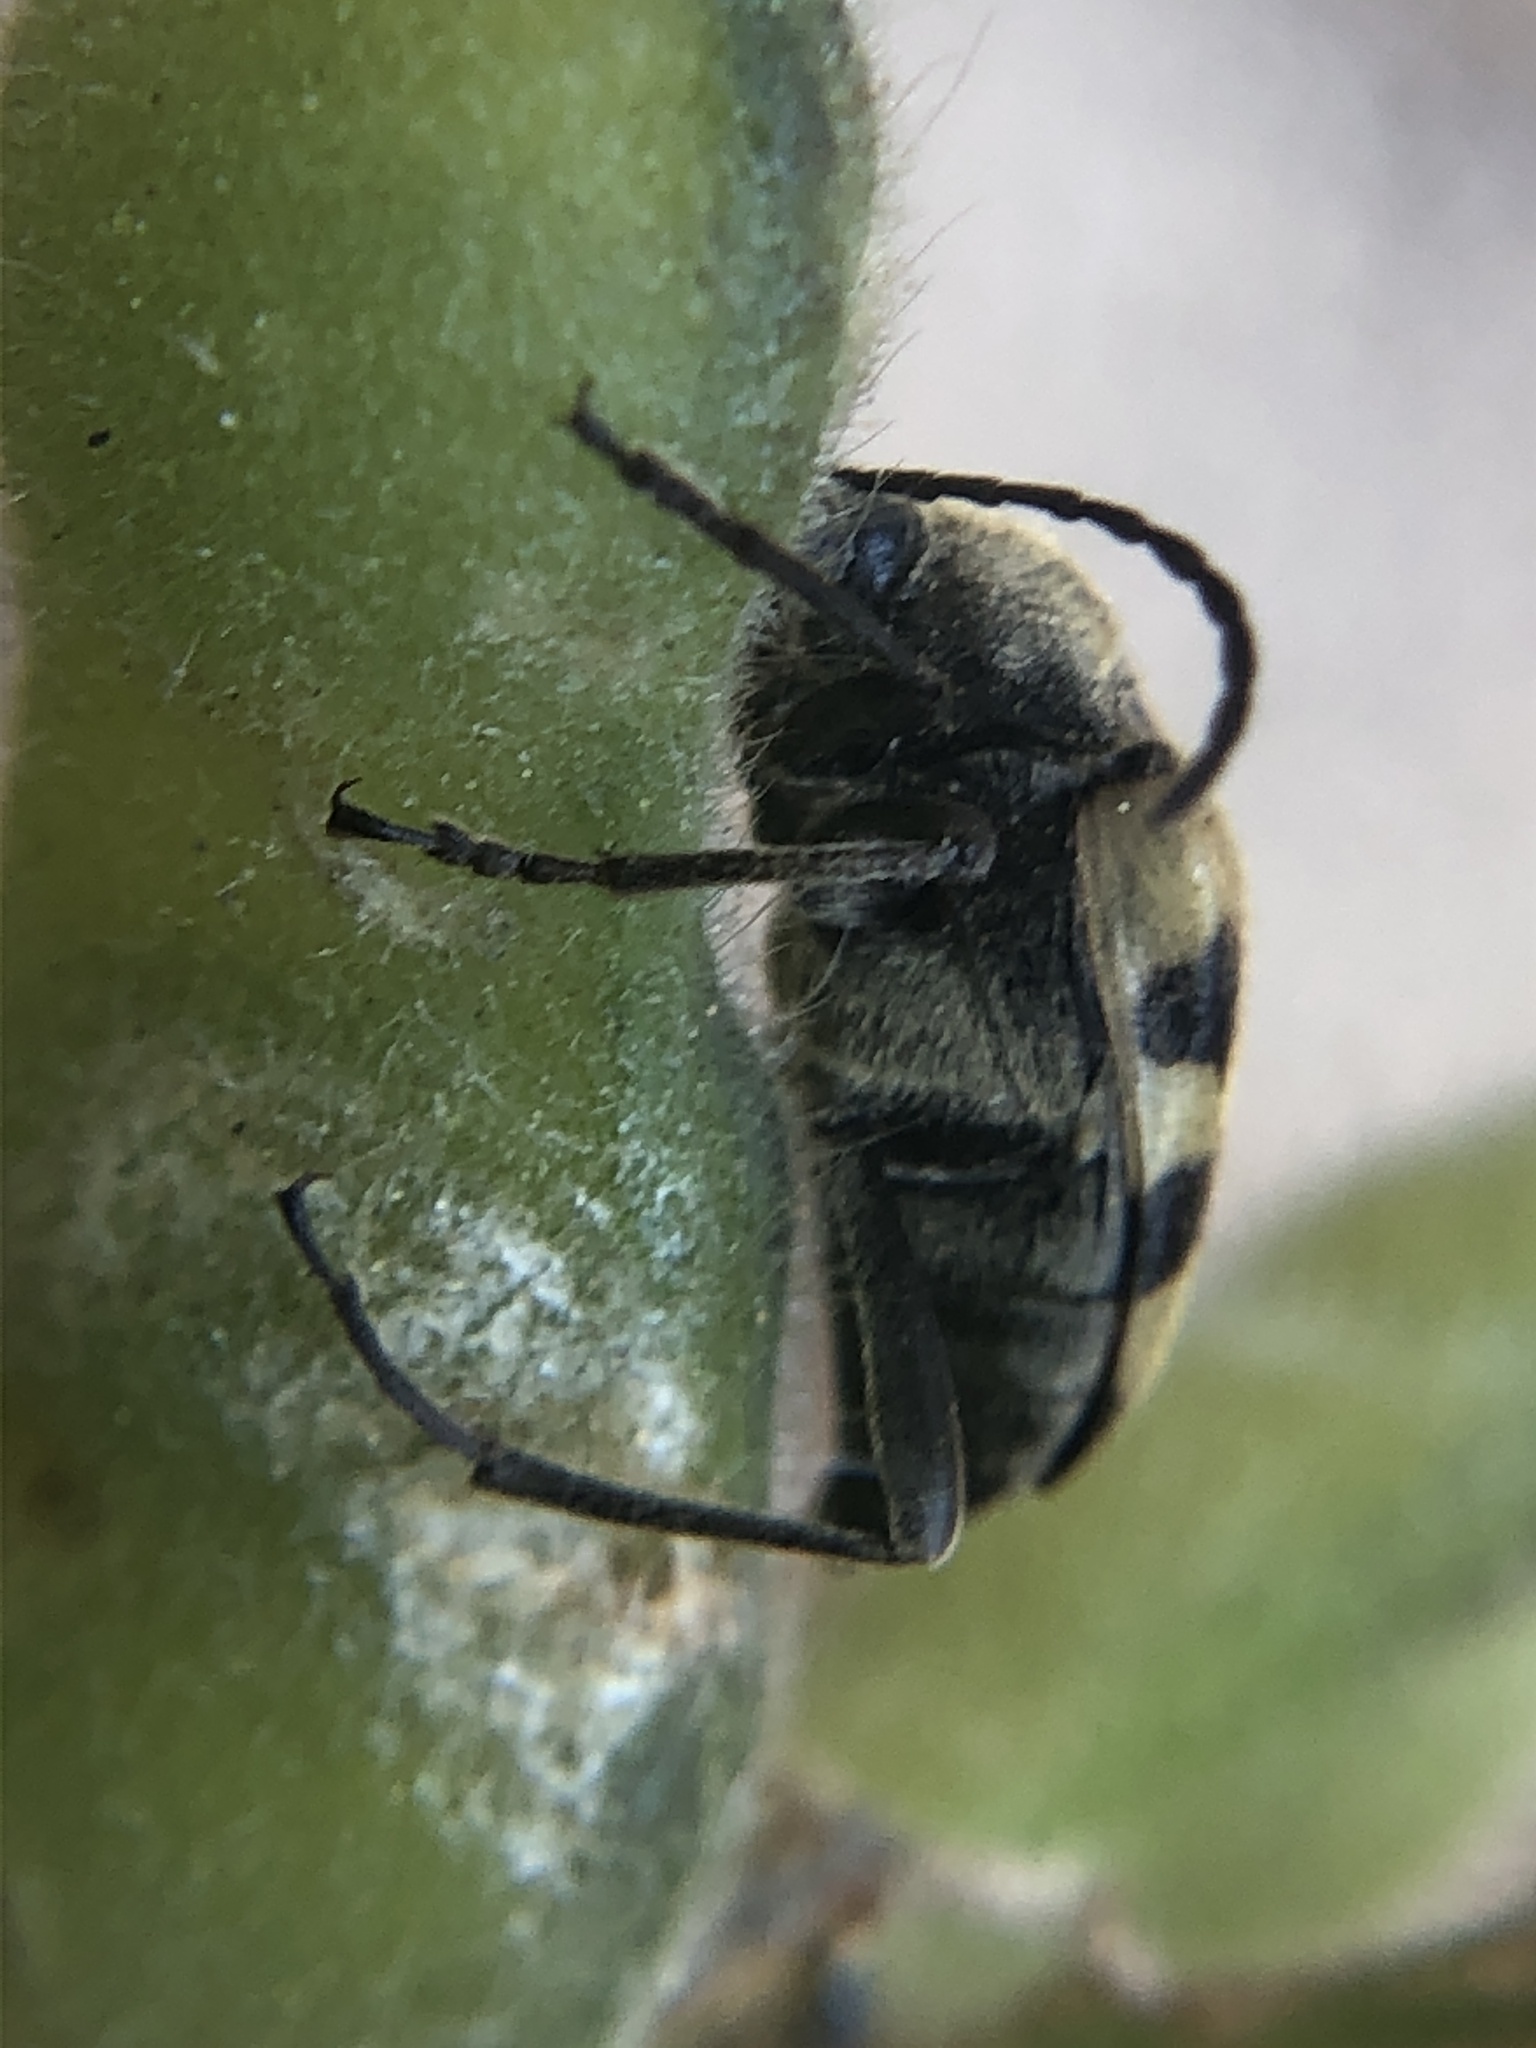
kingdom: Animalia
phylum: Arthropoda
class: Insecta
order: Coleoptera
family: Cerambycidae
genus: Judolia
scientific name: Judolia instabilis
